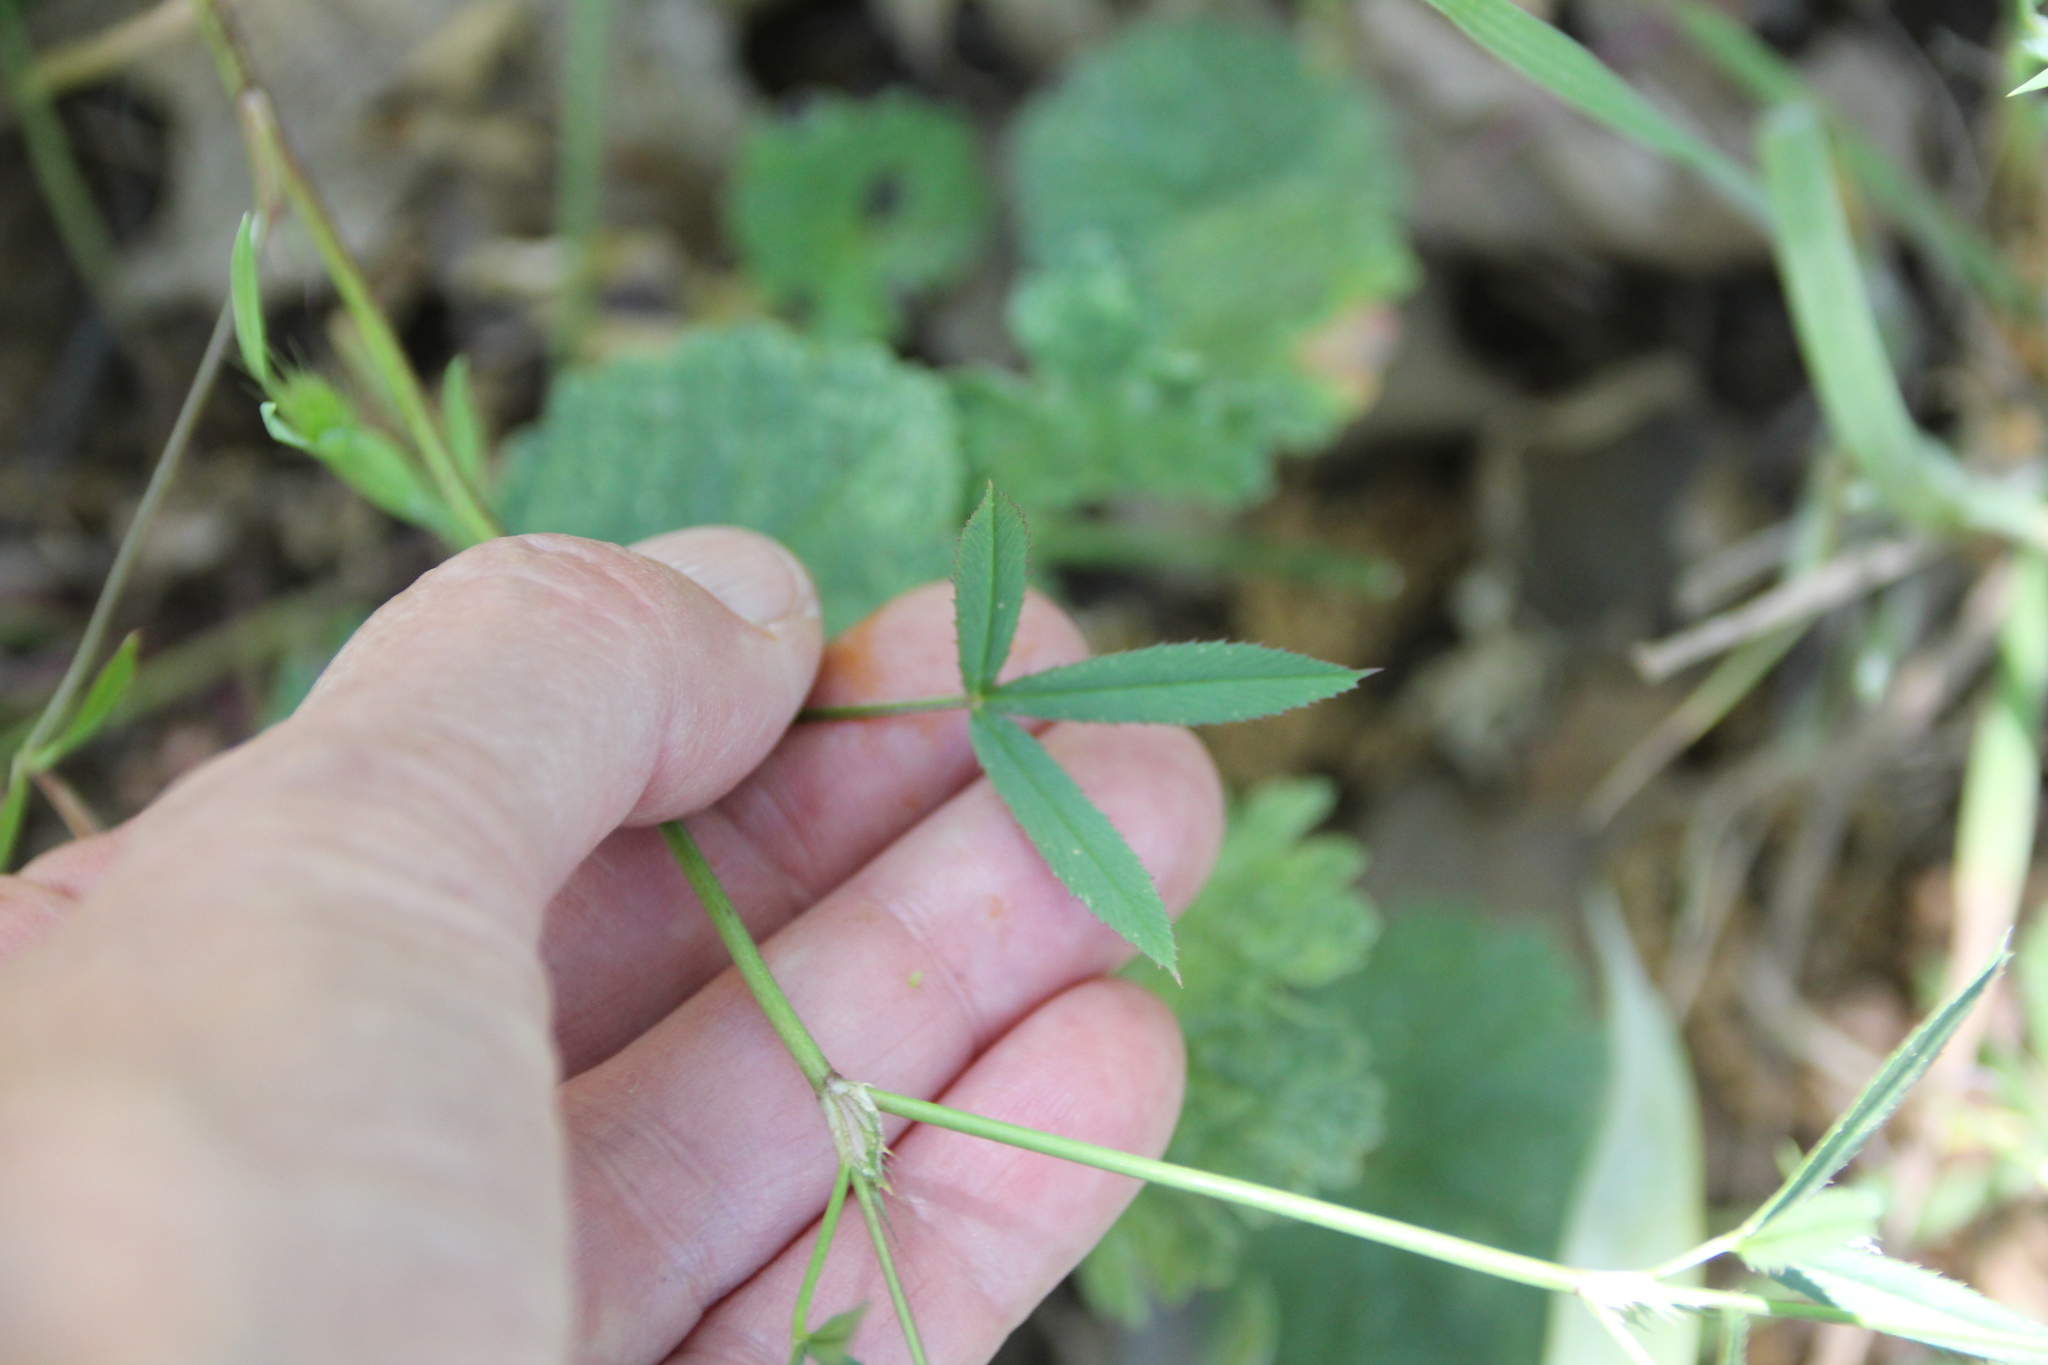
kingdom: Plantae
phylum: Tracheophyta
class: Magnoliopsida
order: Fabales
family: Fabaceae
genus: Trifolium
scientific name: Trifolium willdenovii
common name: Tomcat clover
